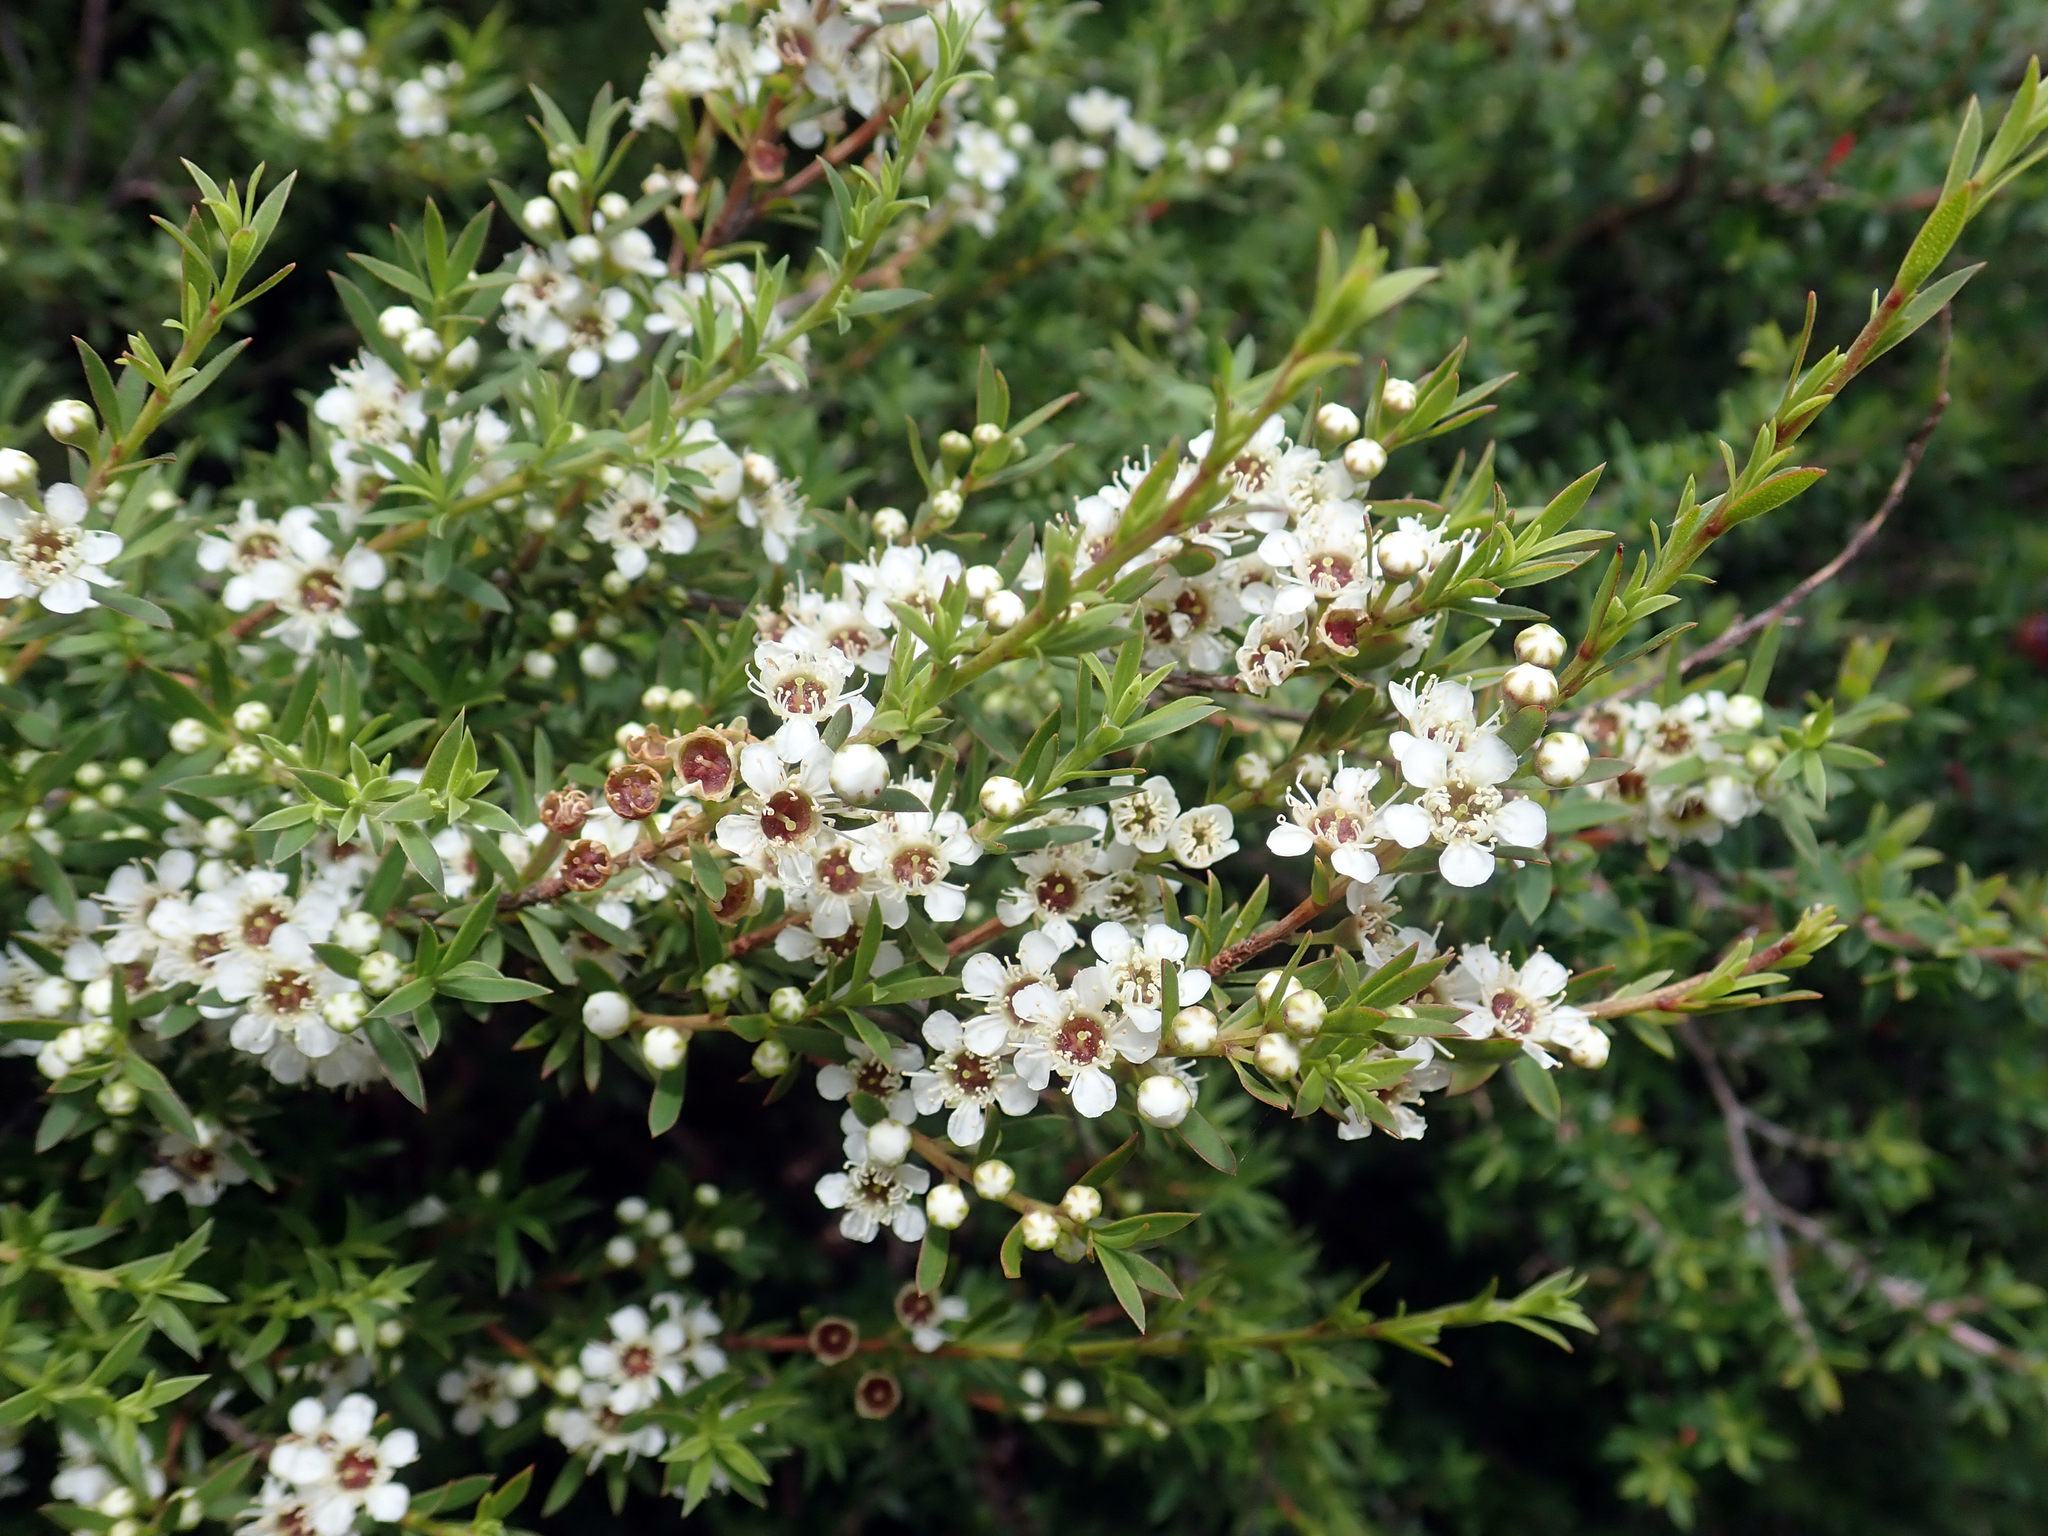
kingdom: Plantae
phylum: Tracheophyta
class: Magnoliopsida
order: Myrtales
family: Myrtaceae
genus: Kunzea
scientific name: Kunzea robusta
